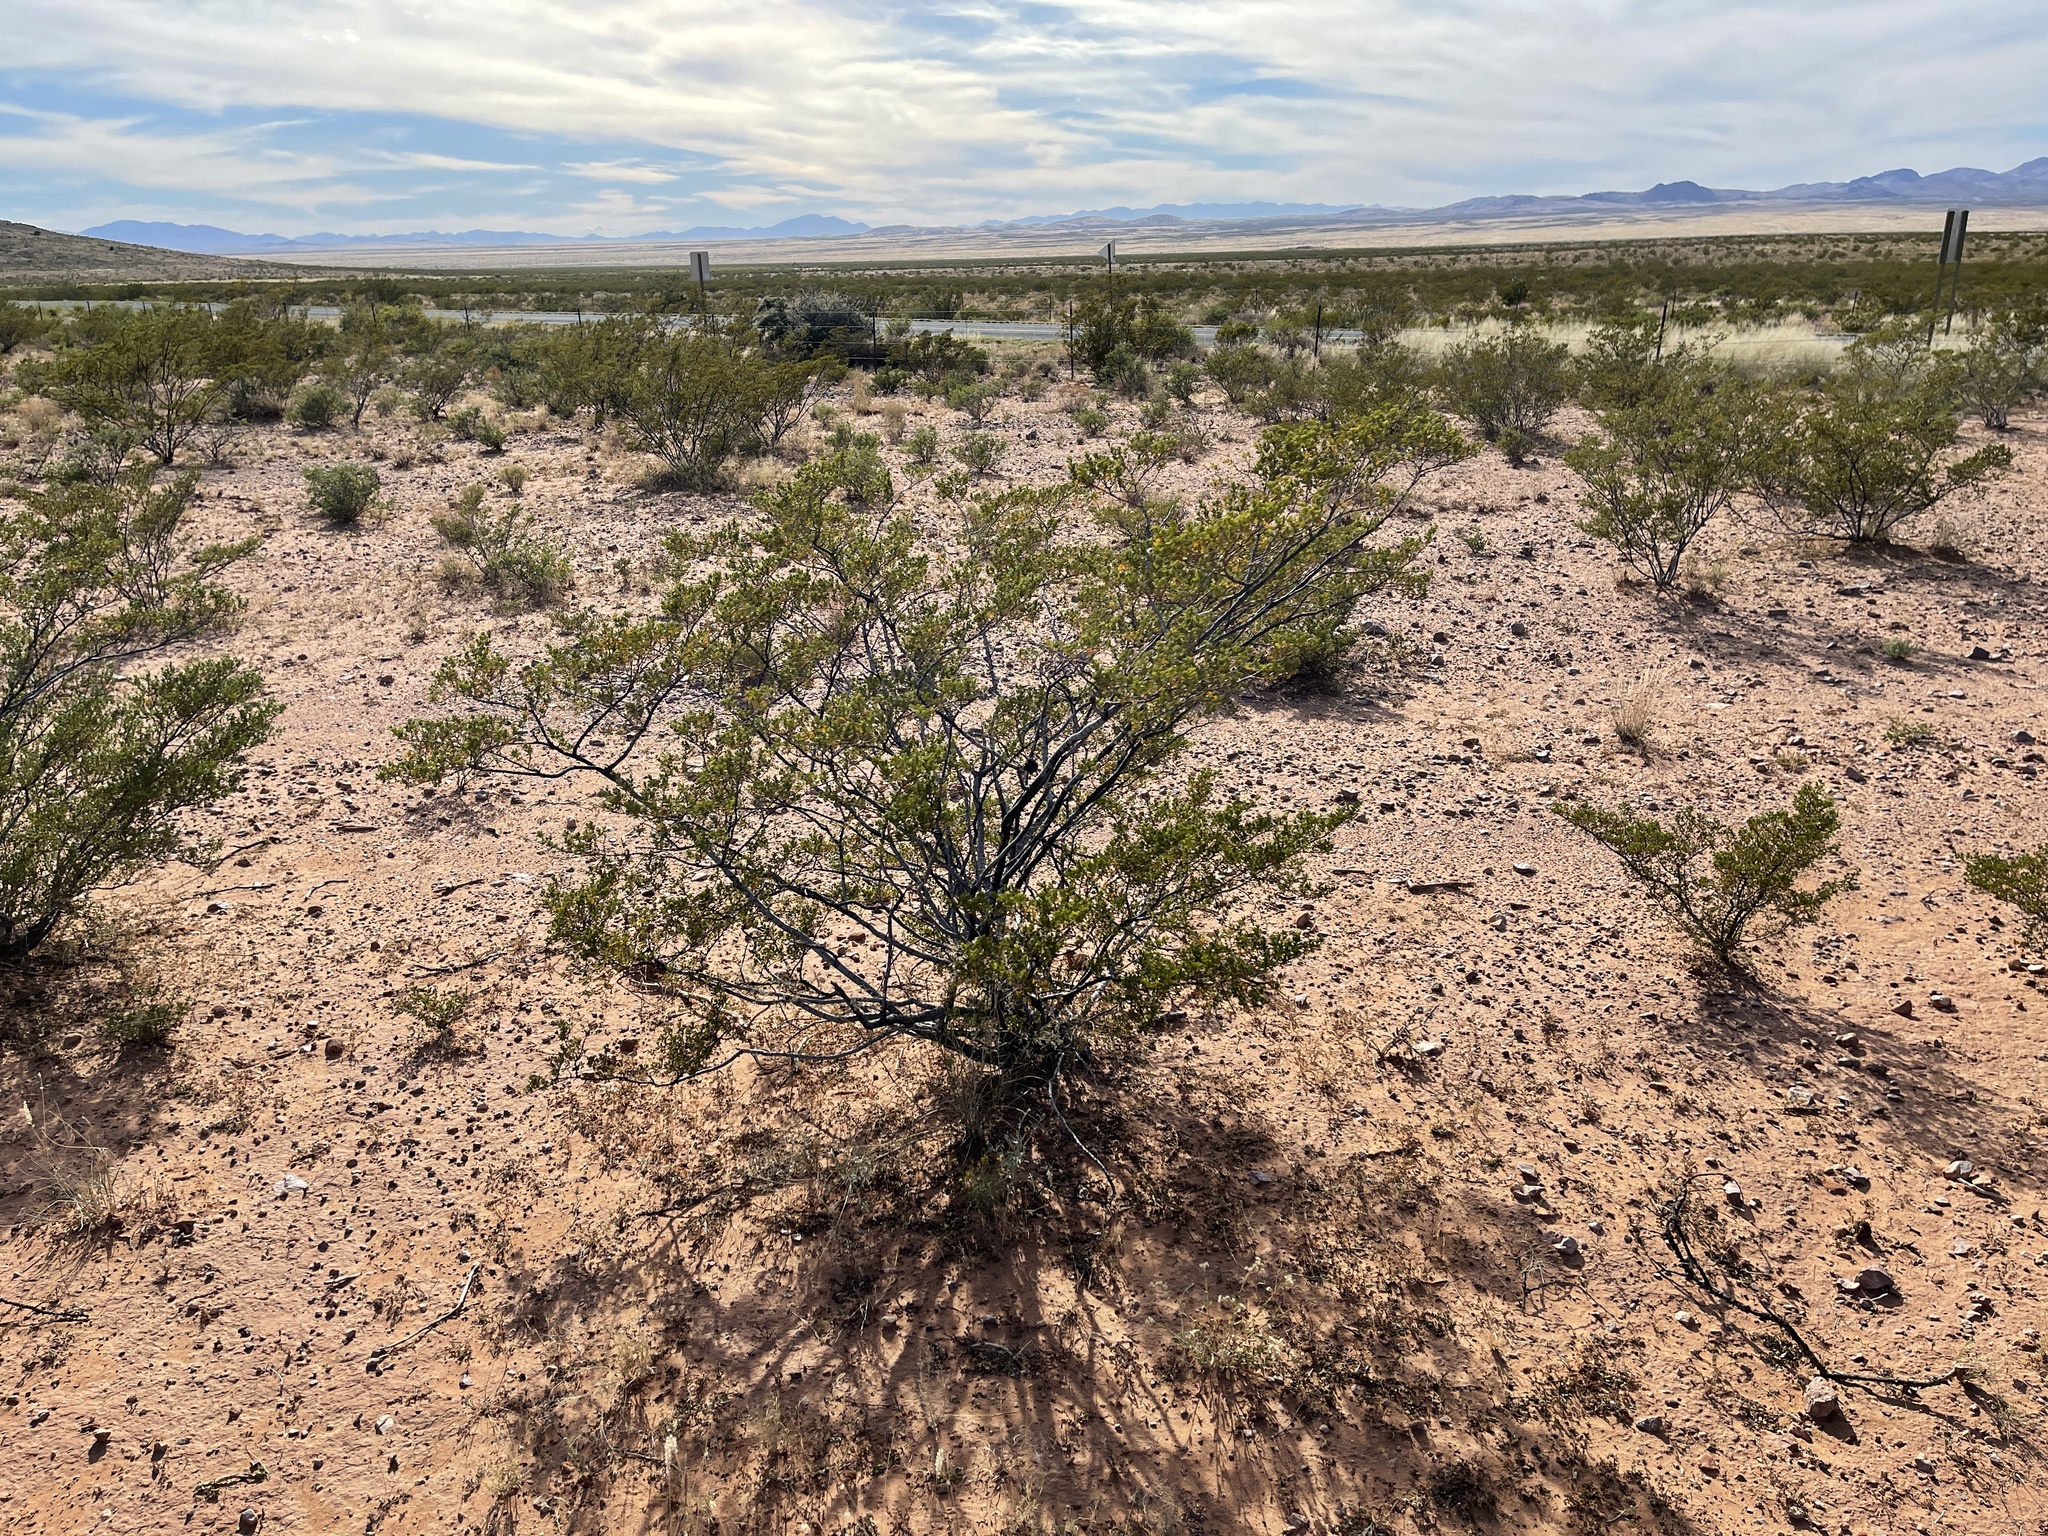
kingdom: Plantae
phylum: Tracheophyta
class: Magnoliopsida
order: Zygophyllales
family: Zygophyllaceae
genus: Larrea
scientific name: Larrea tridentata
